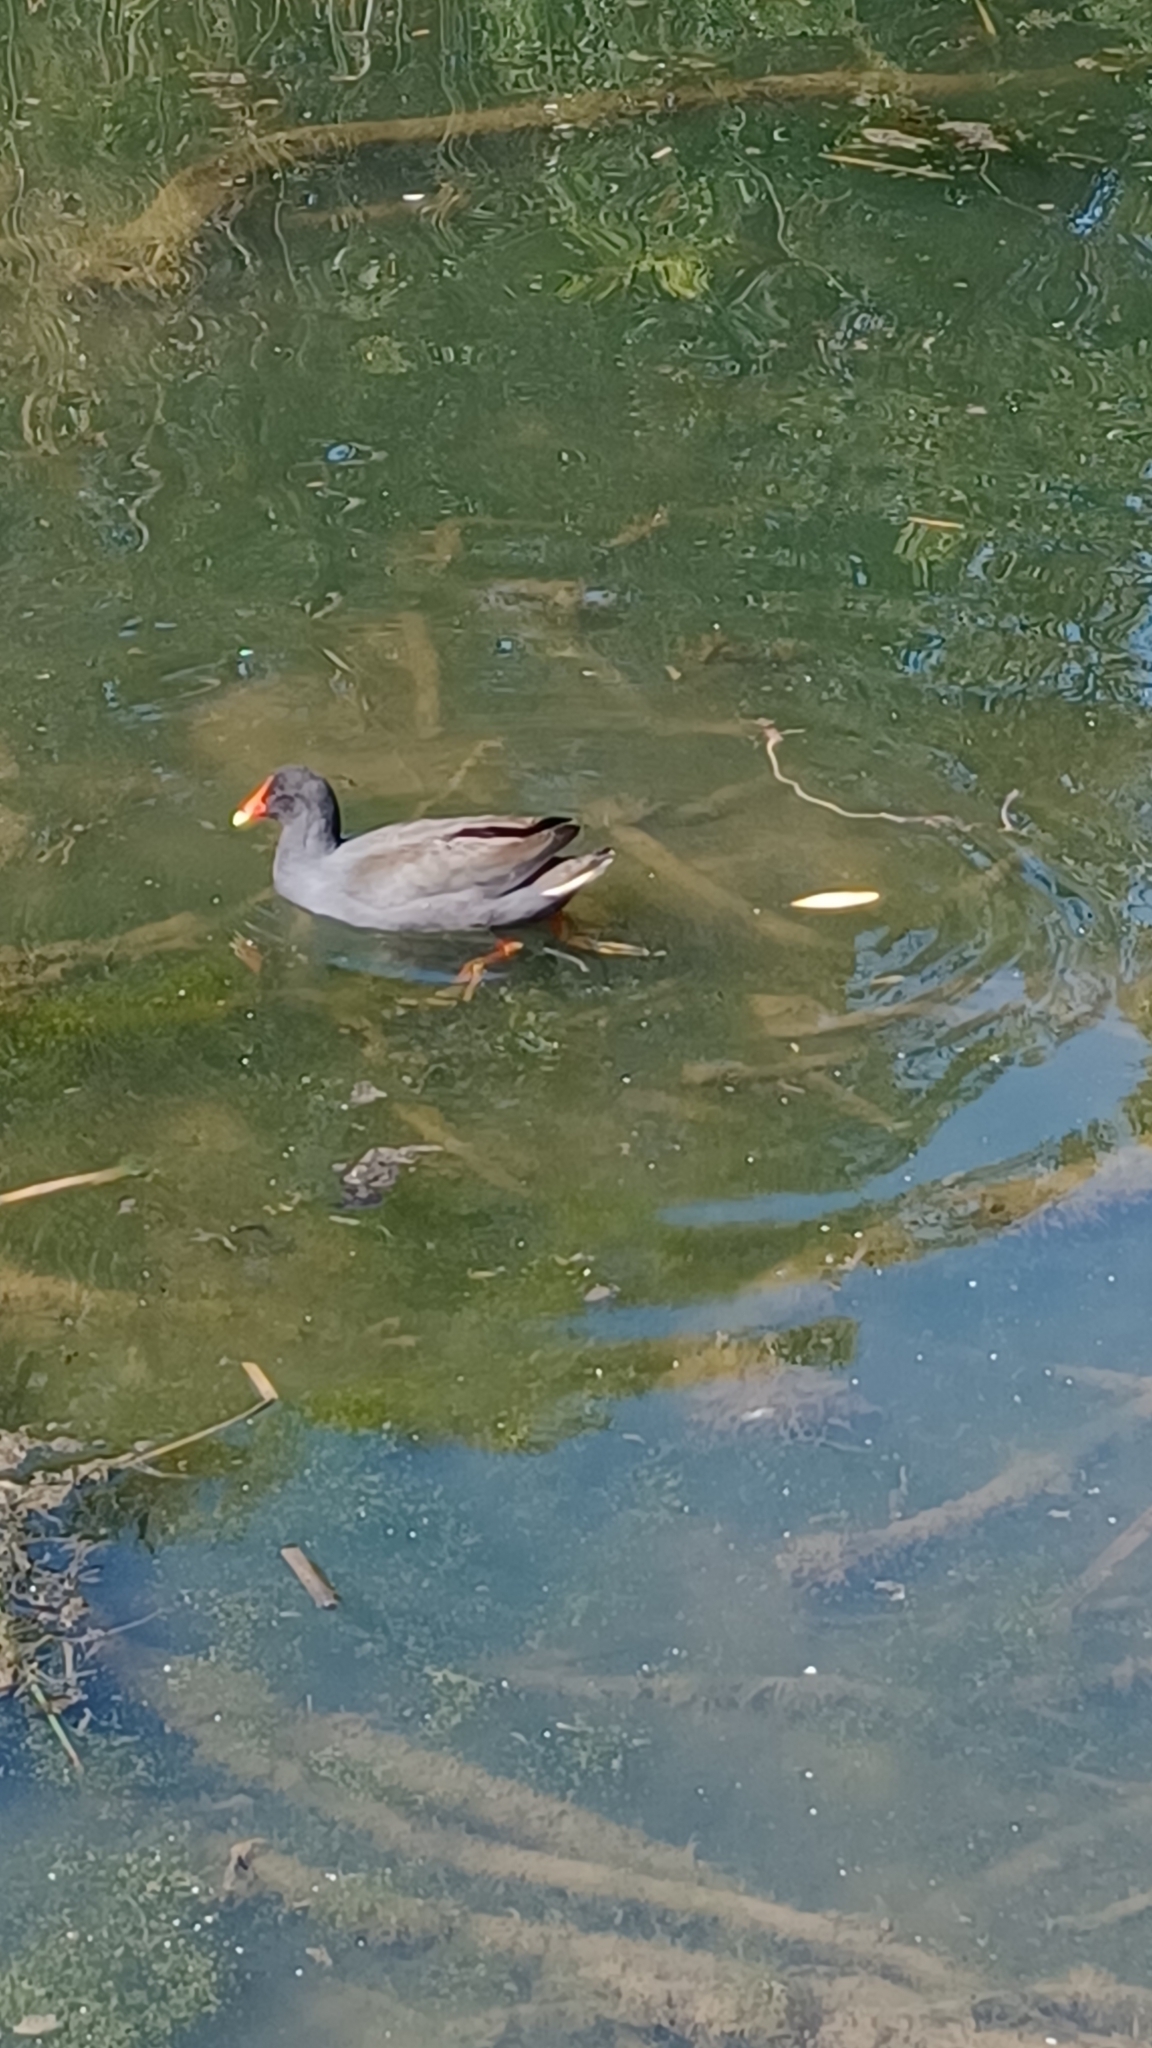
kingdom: Animalia
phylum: Chordata
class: Aves
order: Gruiformes
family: Rallidae
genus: Gallinula
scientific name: Gallinula tenebrosa
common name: Dusky moorhen
